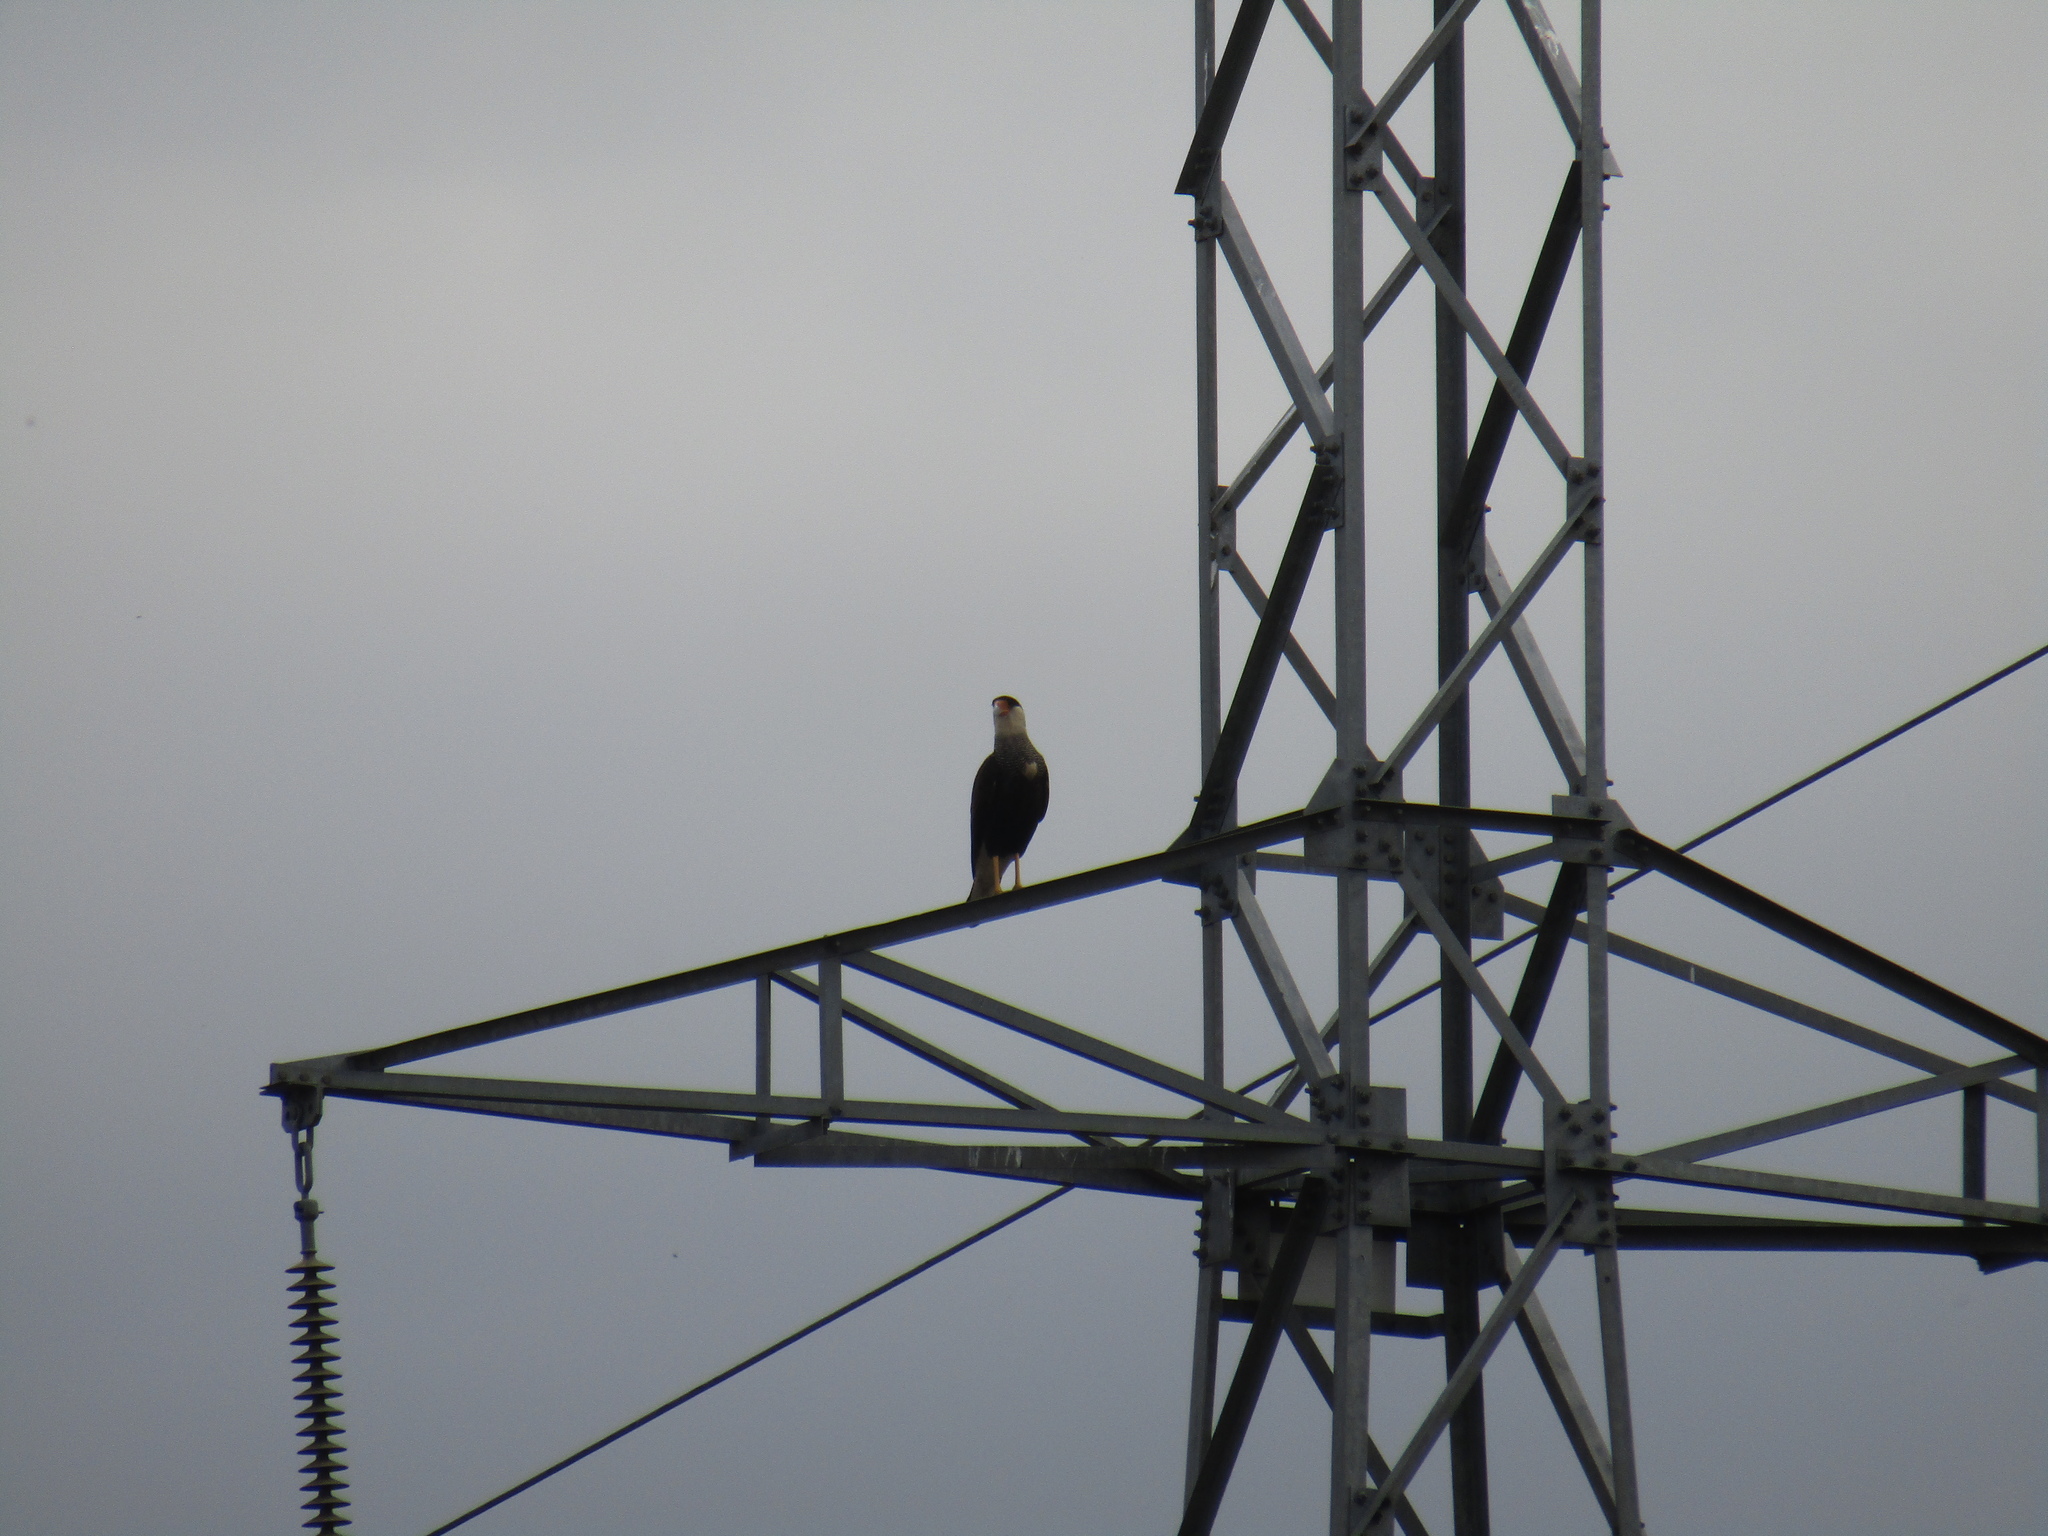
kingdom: Animalia
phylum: Chordata
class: Aves
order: Falconiformes
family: Falconidae
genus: Caracara
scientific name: Caracara plancus
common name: Southern caracara
